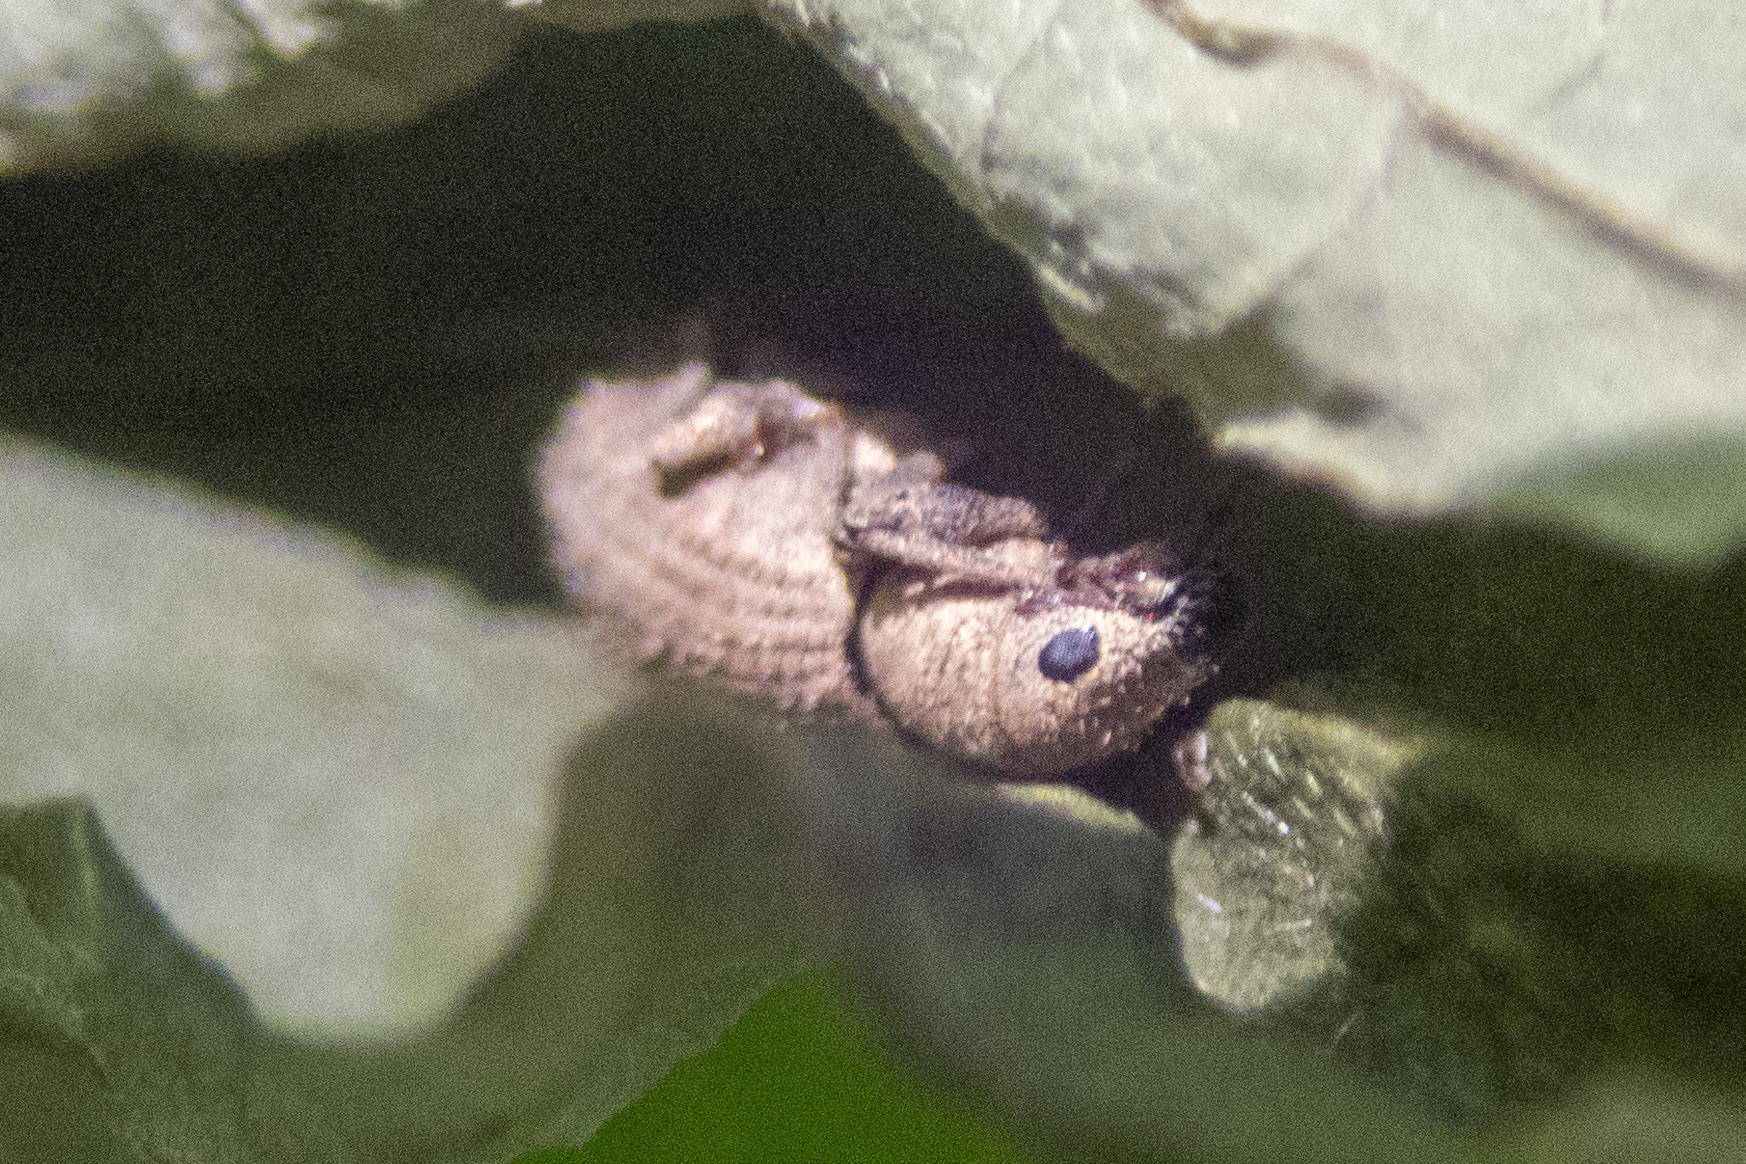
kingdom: Animalia
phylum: Arthropoda
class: Insecta
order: Coleoptera
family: Curculionidae
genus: Sciaphilus
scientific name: Sciaphilus asperatus
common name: Weevil
